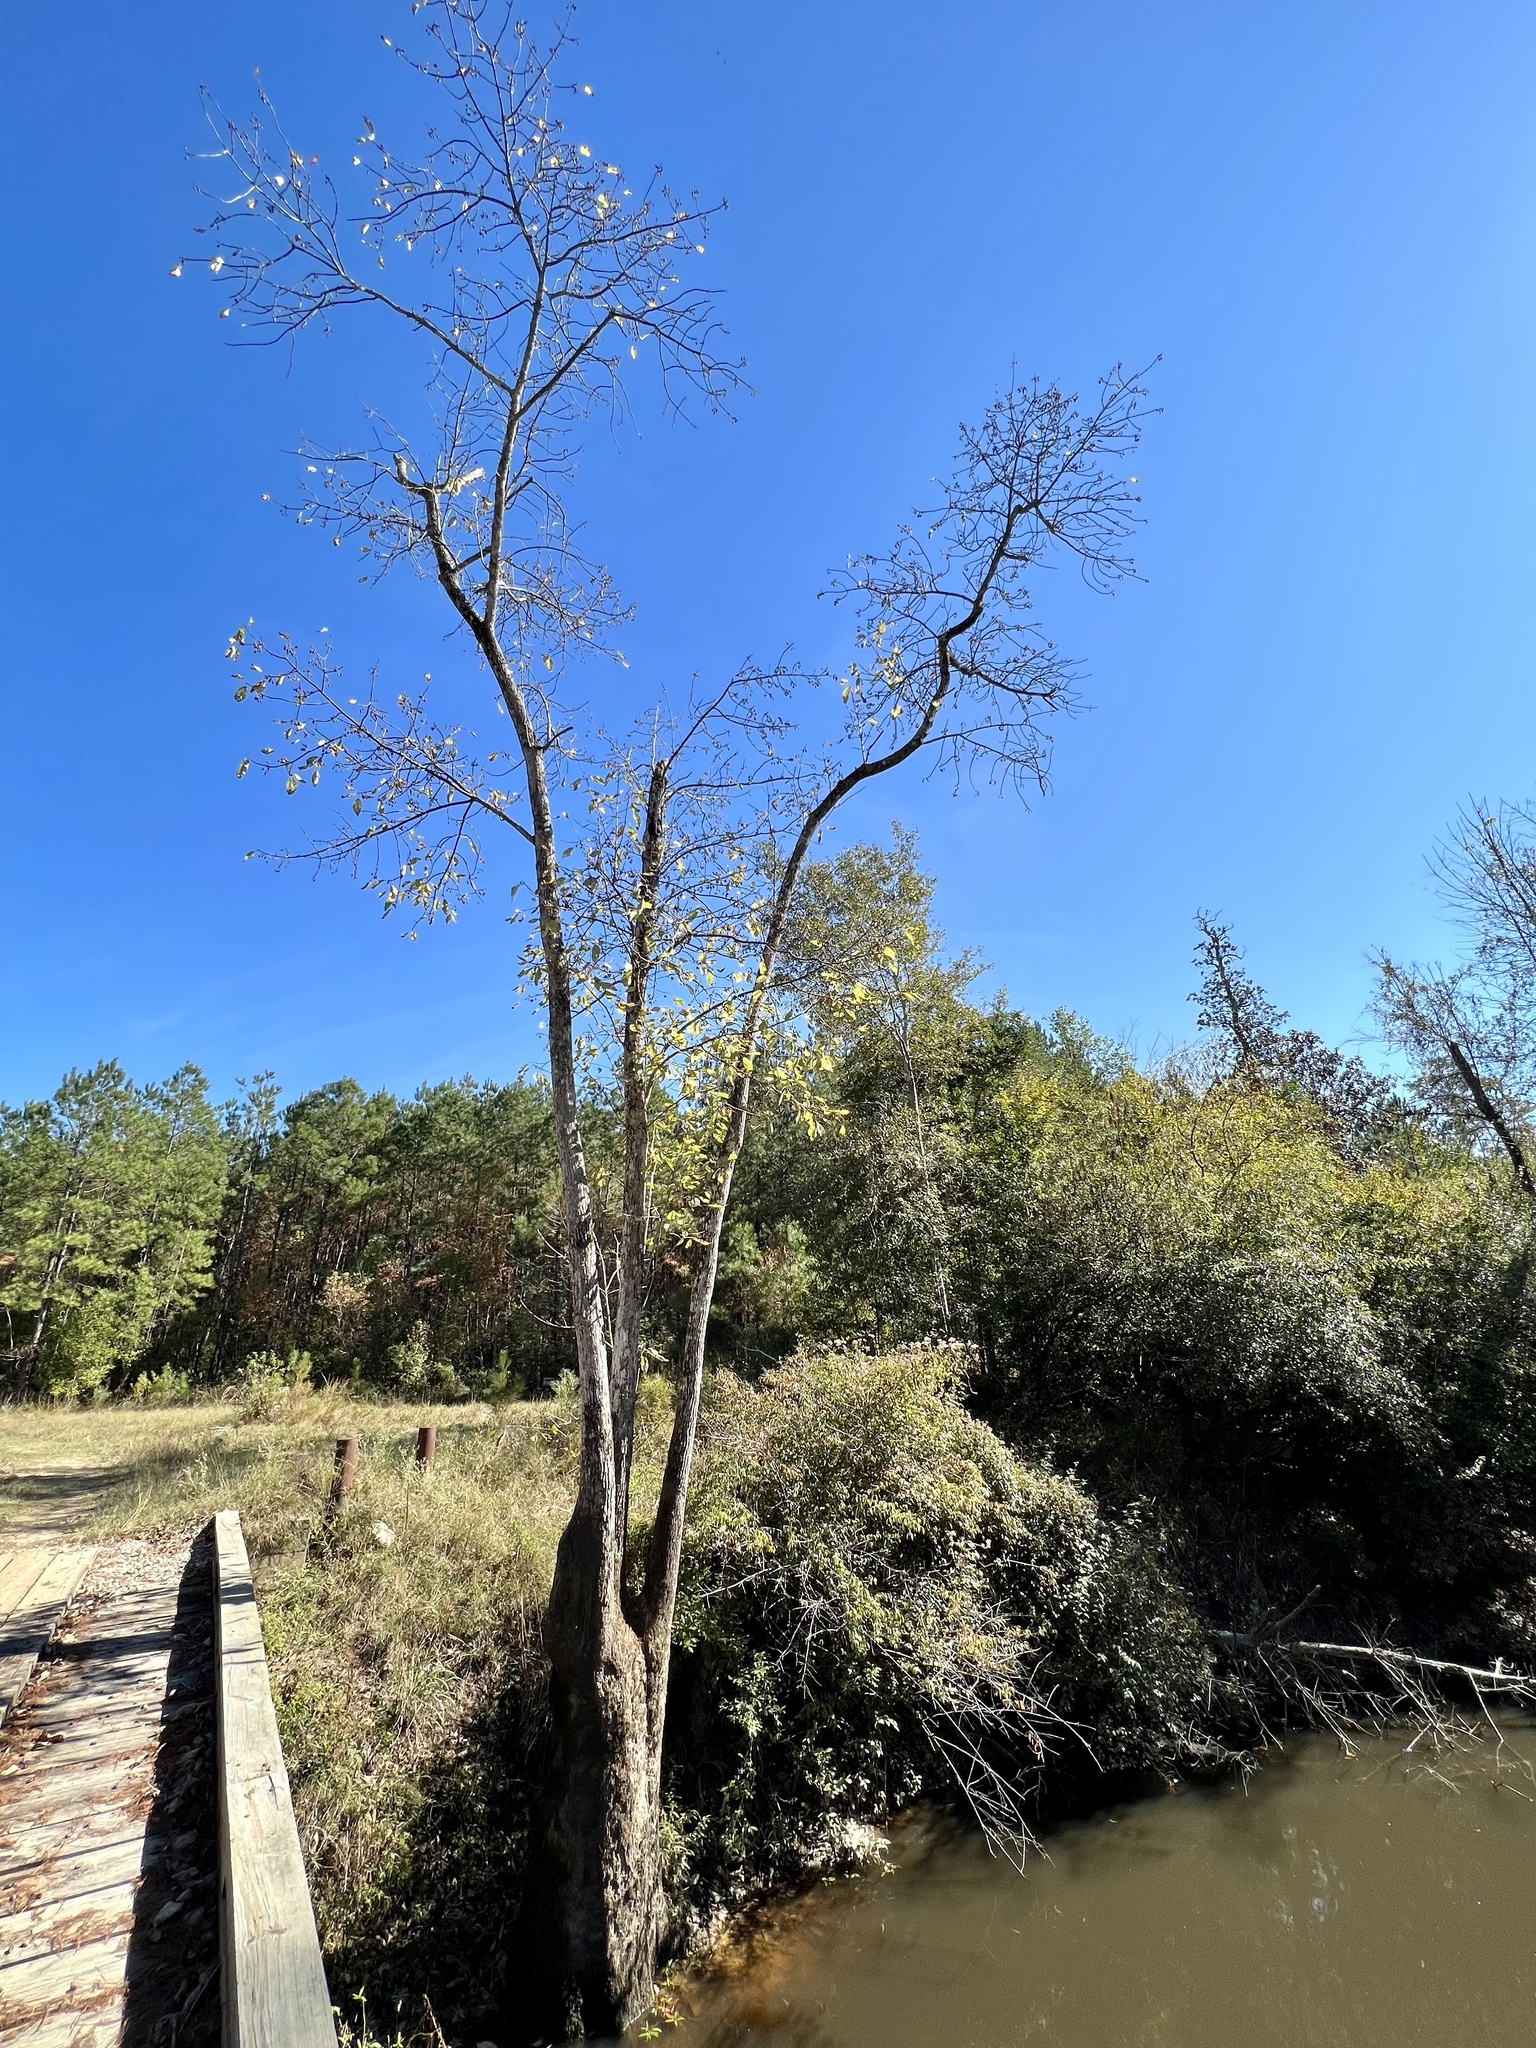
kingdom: Plantae
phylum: Tracheophyta
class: Magnoliopsida
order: Cornales
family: Nyssaceae
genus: Nyssa
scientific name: Nyssa aquatica
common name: Swamp tupelo
